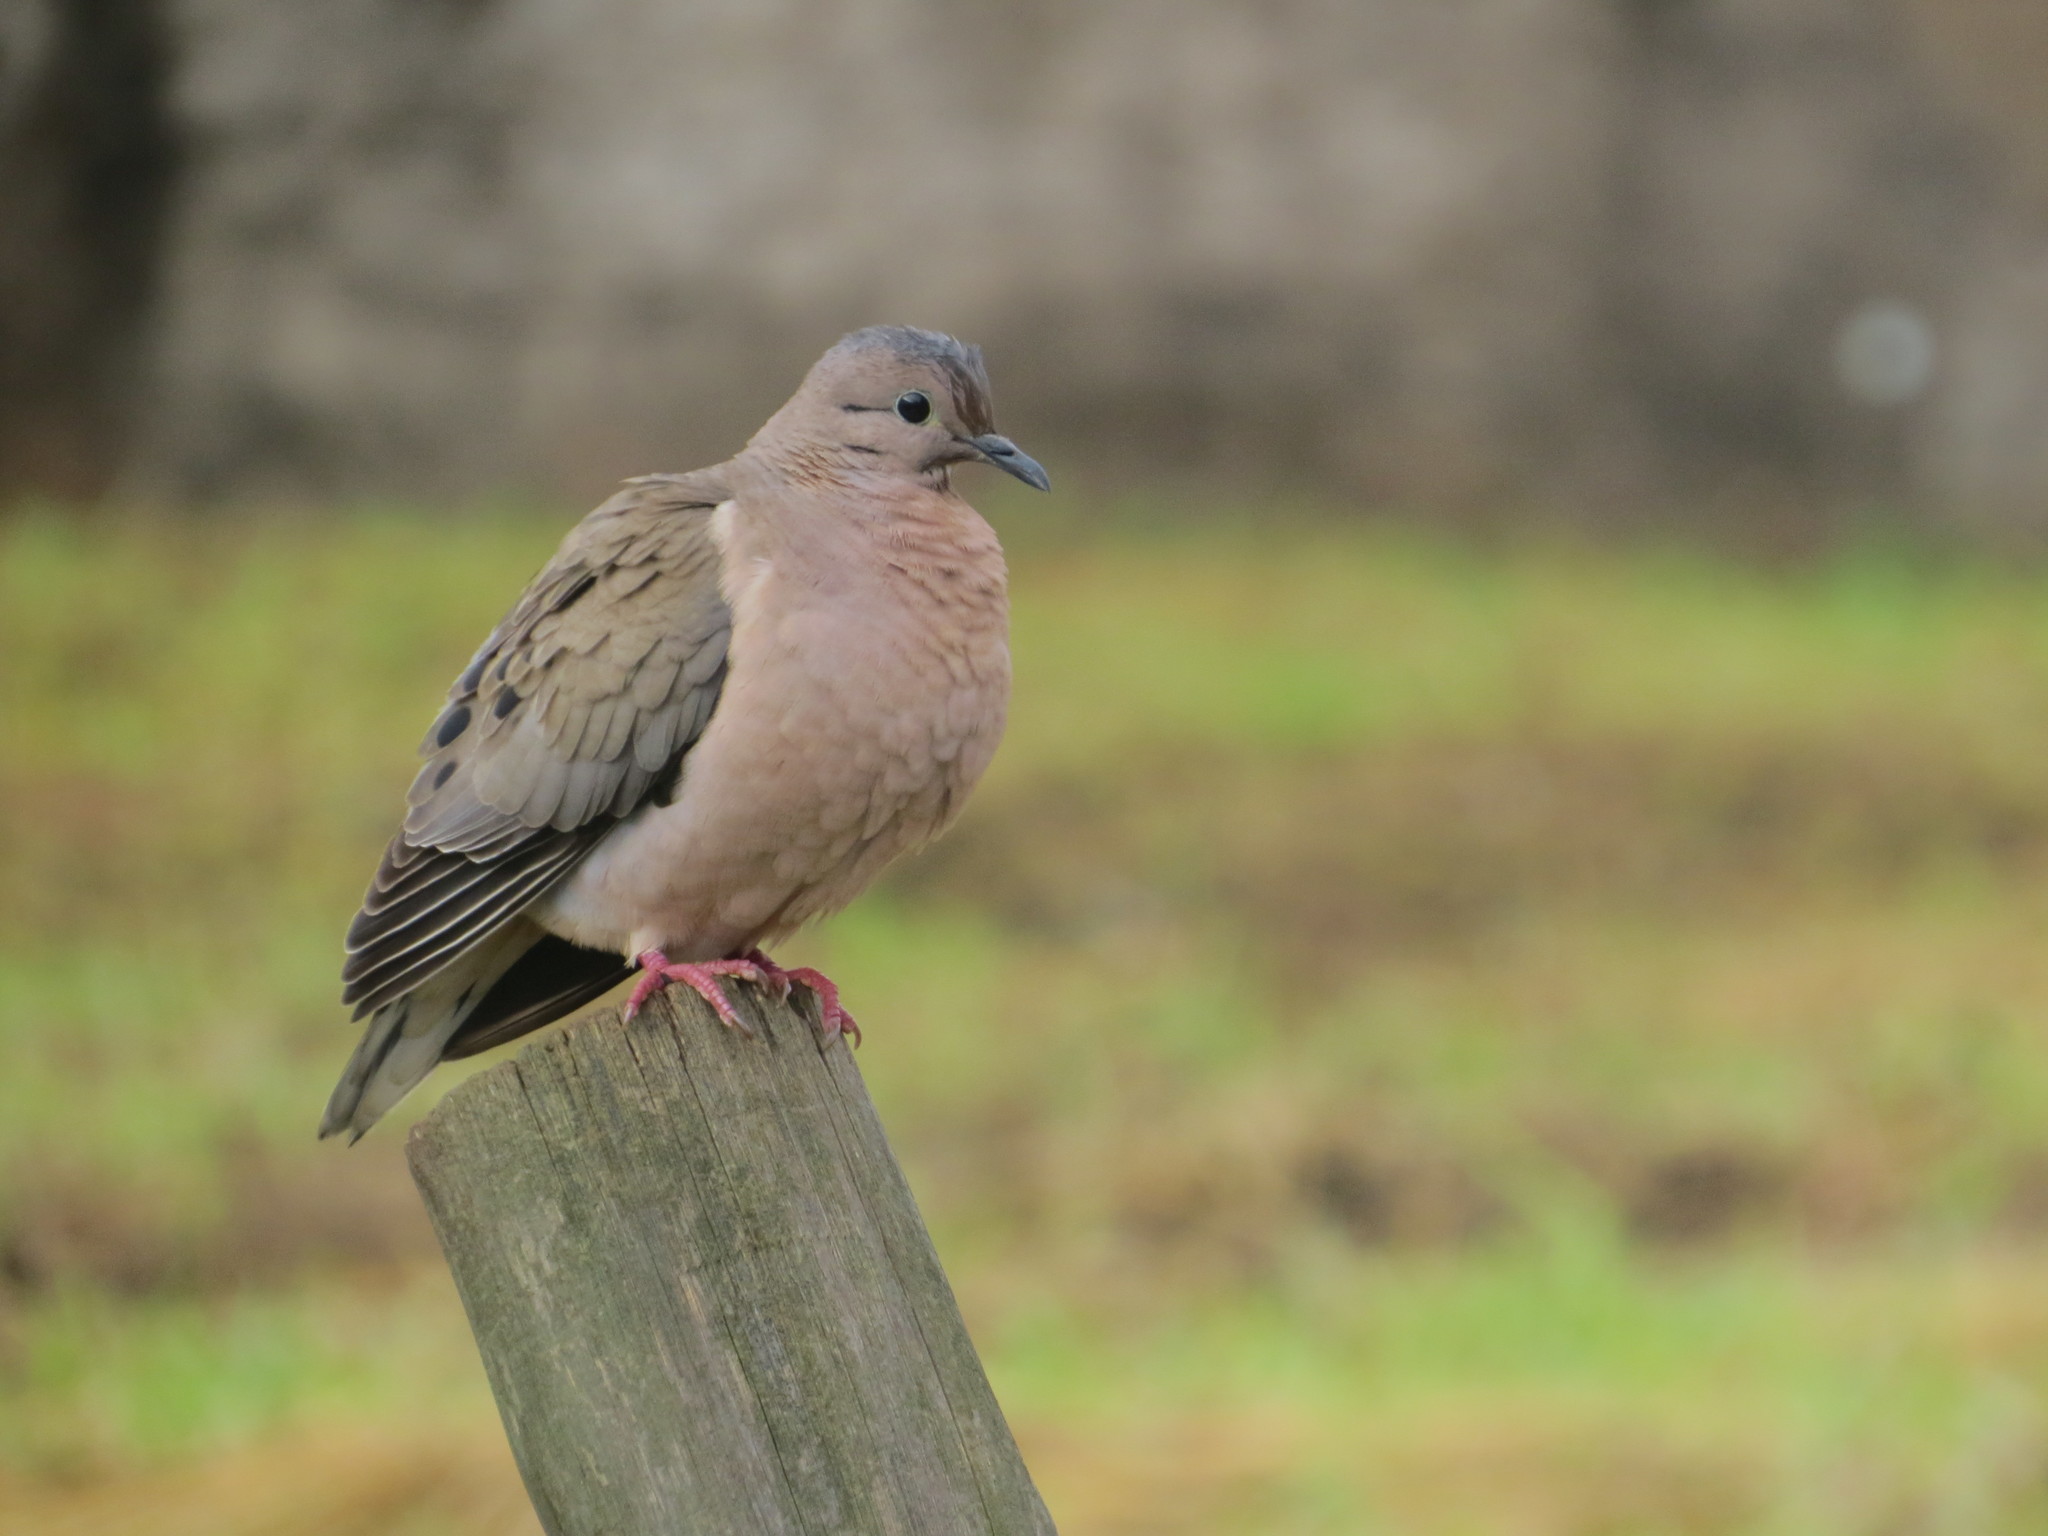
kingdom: Animalia
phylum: Chordata
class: Aves
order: Columbiformes
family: Columbidae
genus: Zenaida
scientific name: Zenaida auriculata
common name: Eared dove
